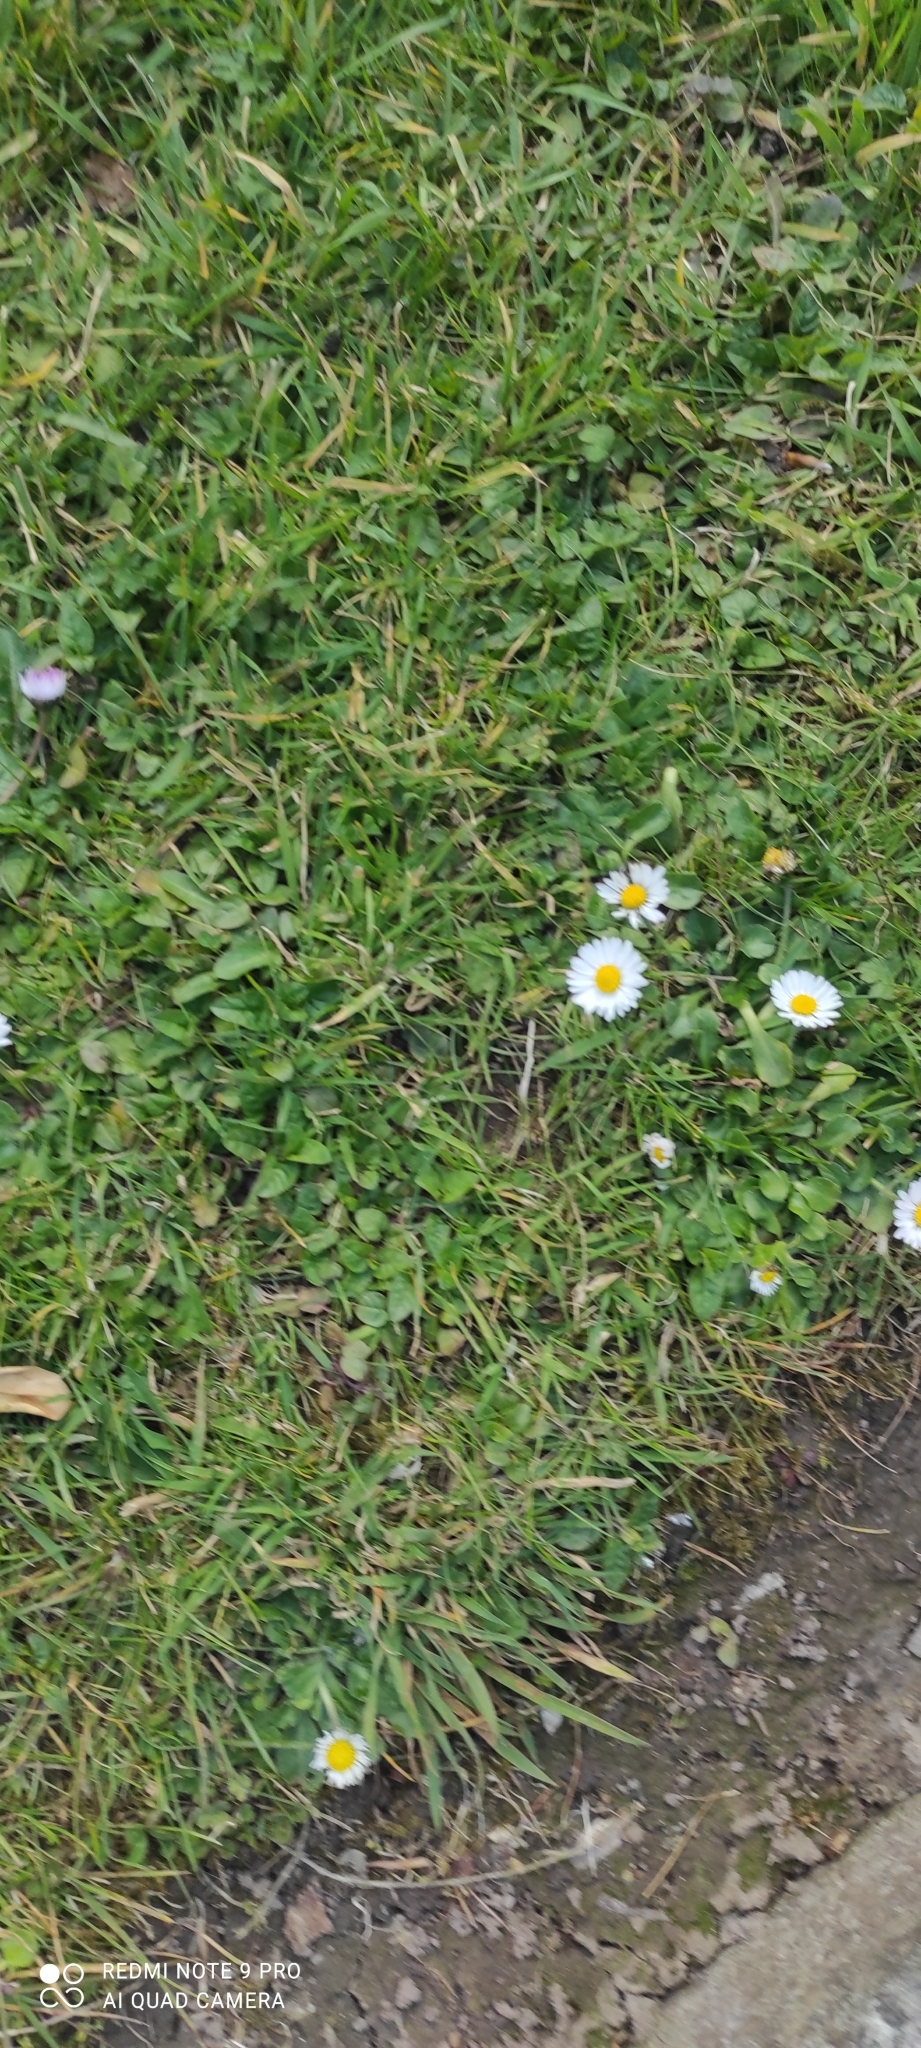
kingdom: Plantae
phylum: Tracheophyta
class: Magnoliopsida
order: Asterales
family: Asteraceae
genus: Bellis
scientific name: Bellis perennis
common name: Lawndaisy
